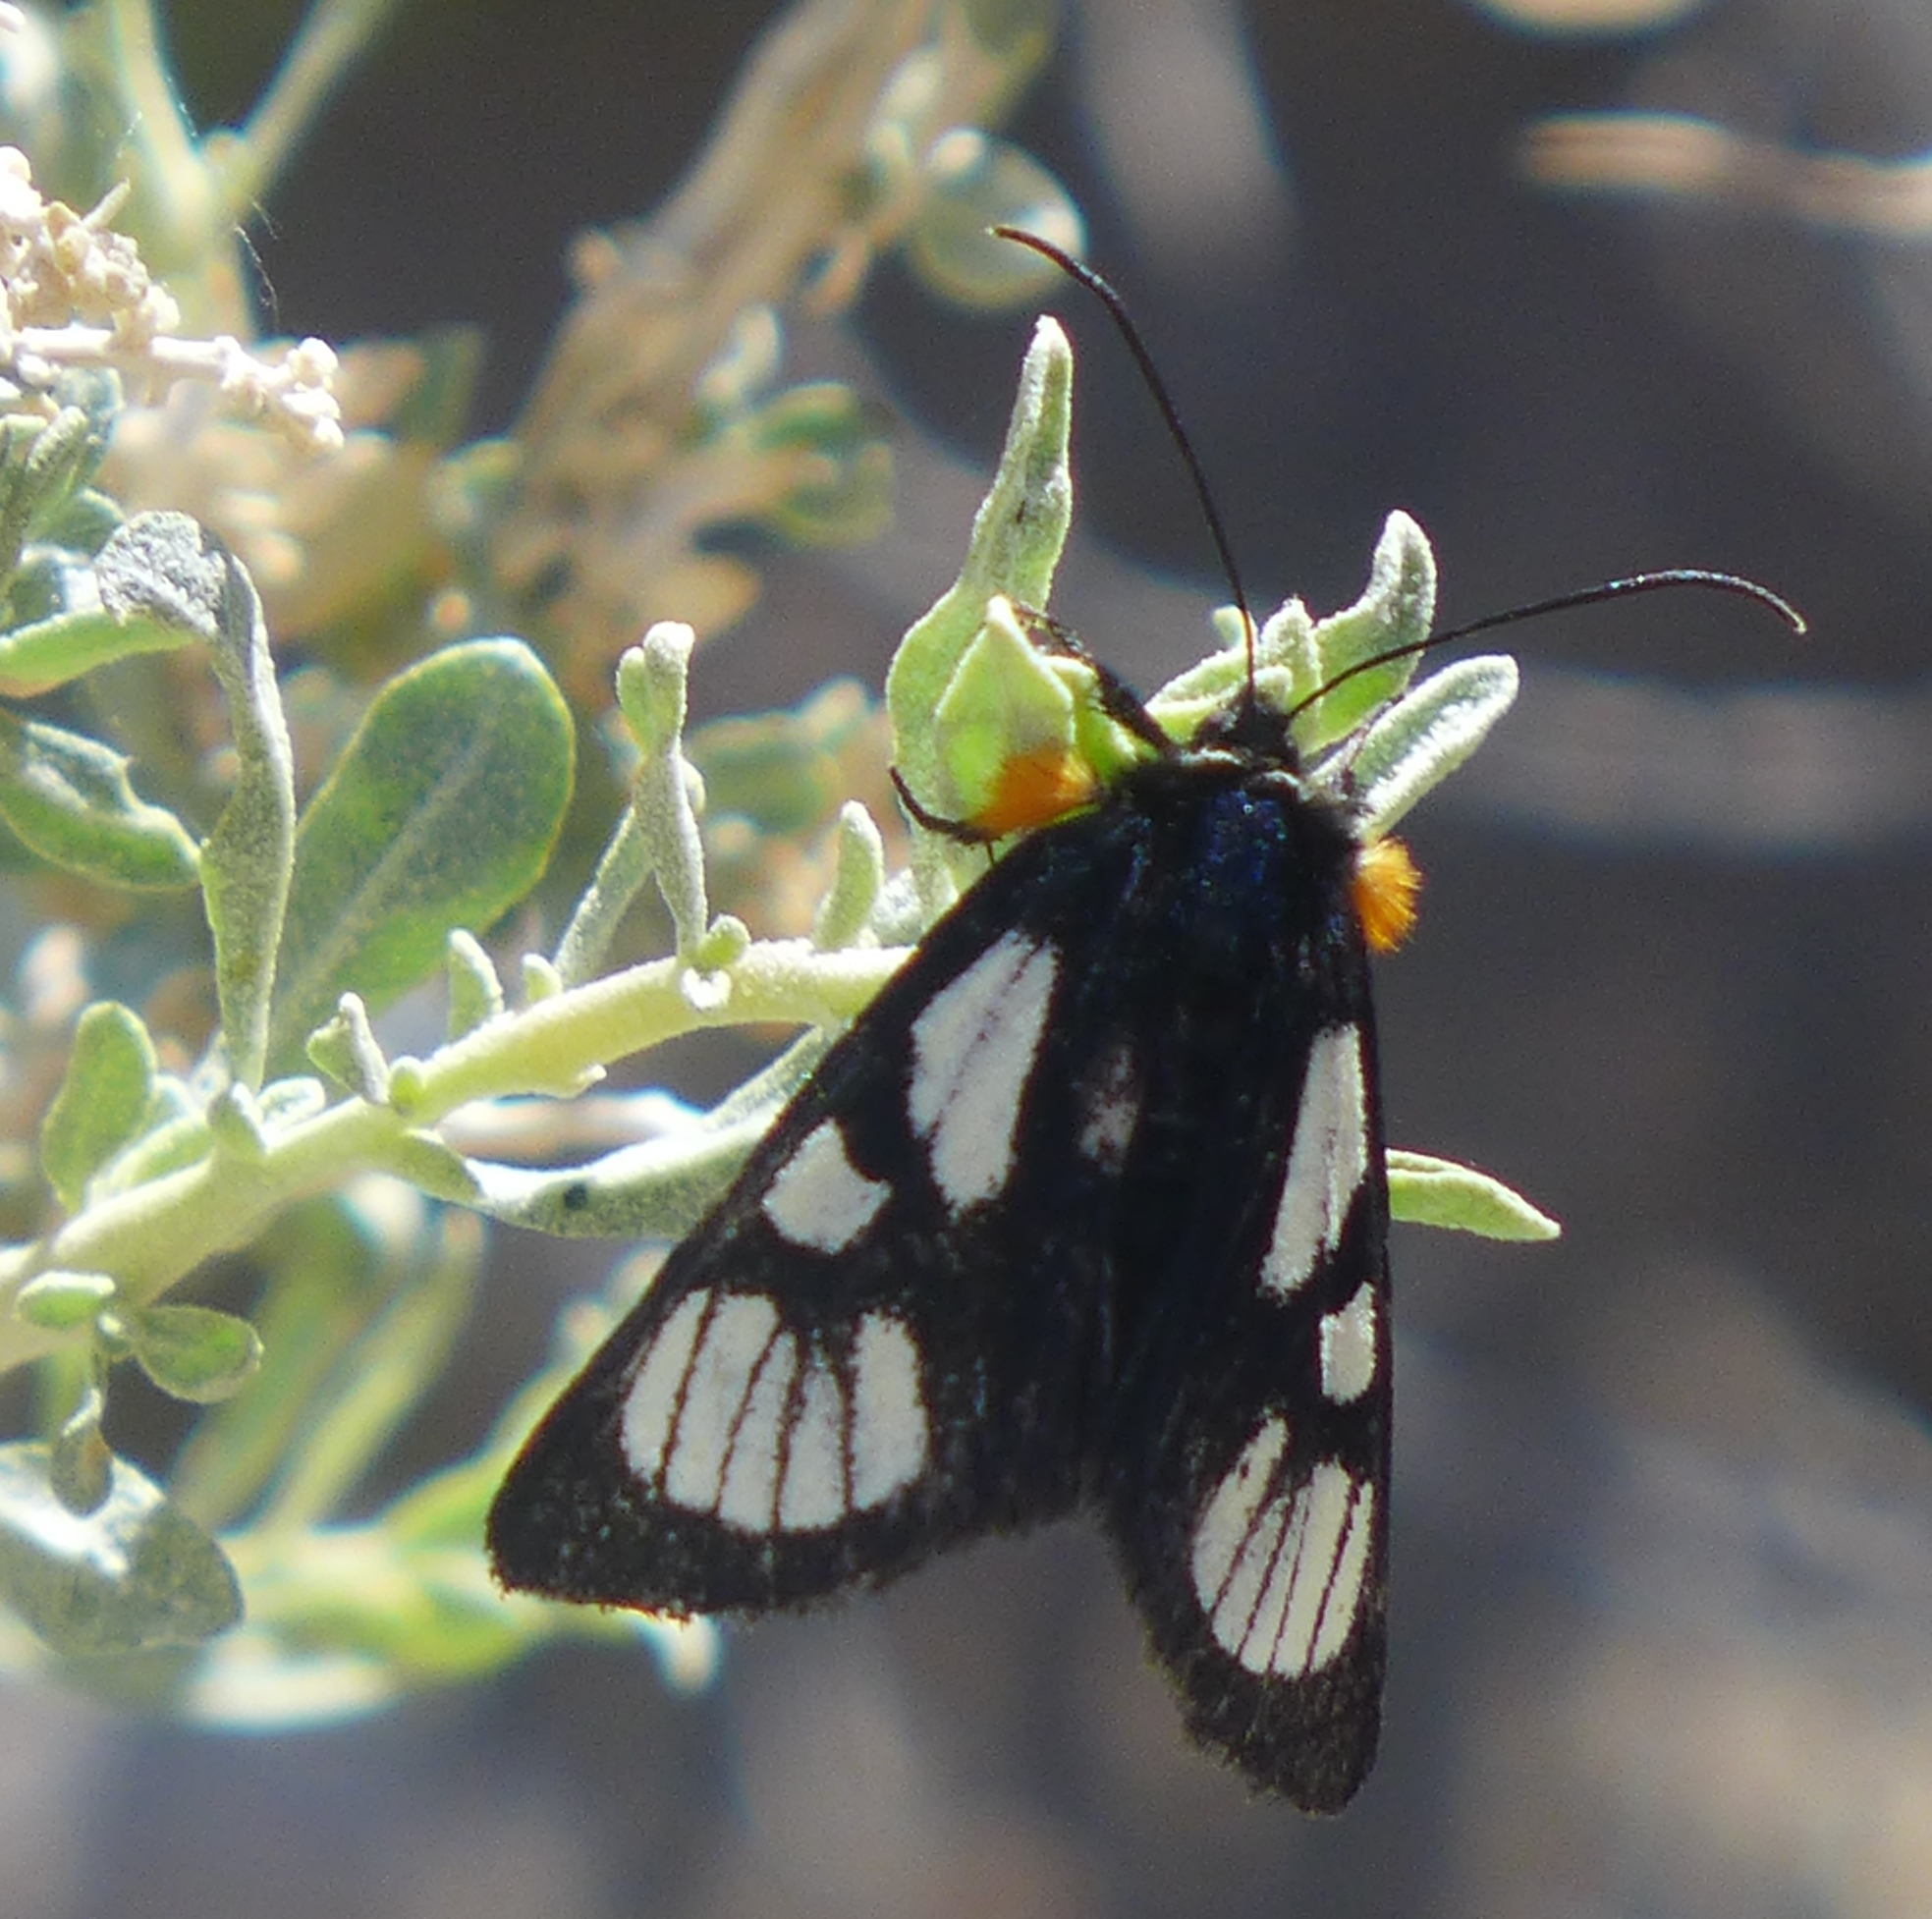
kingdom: Animalia
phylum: Arthropoda
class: Insecta
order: Lepidoptera
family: Noctuidae
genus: Alypia
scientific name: Alypia ridingsii
